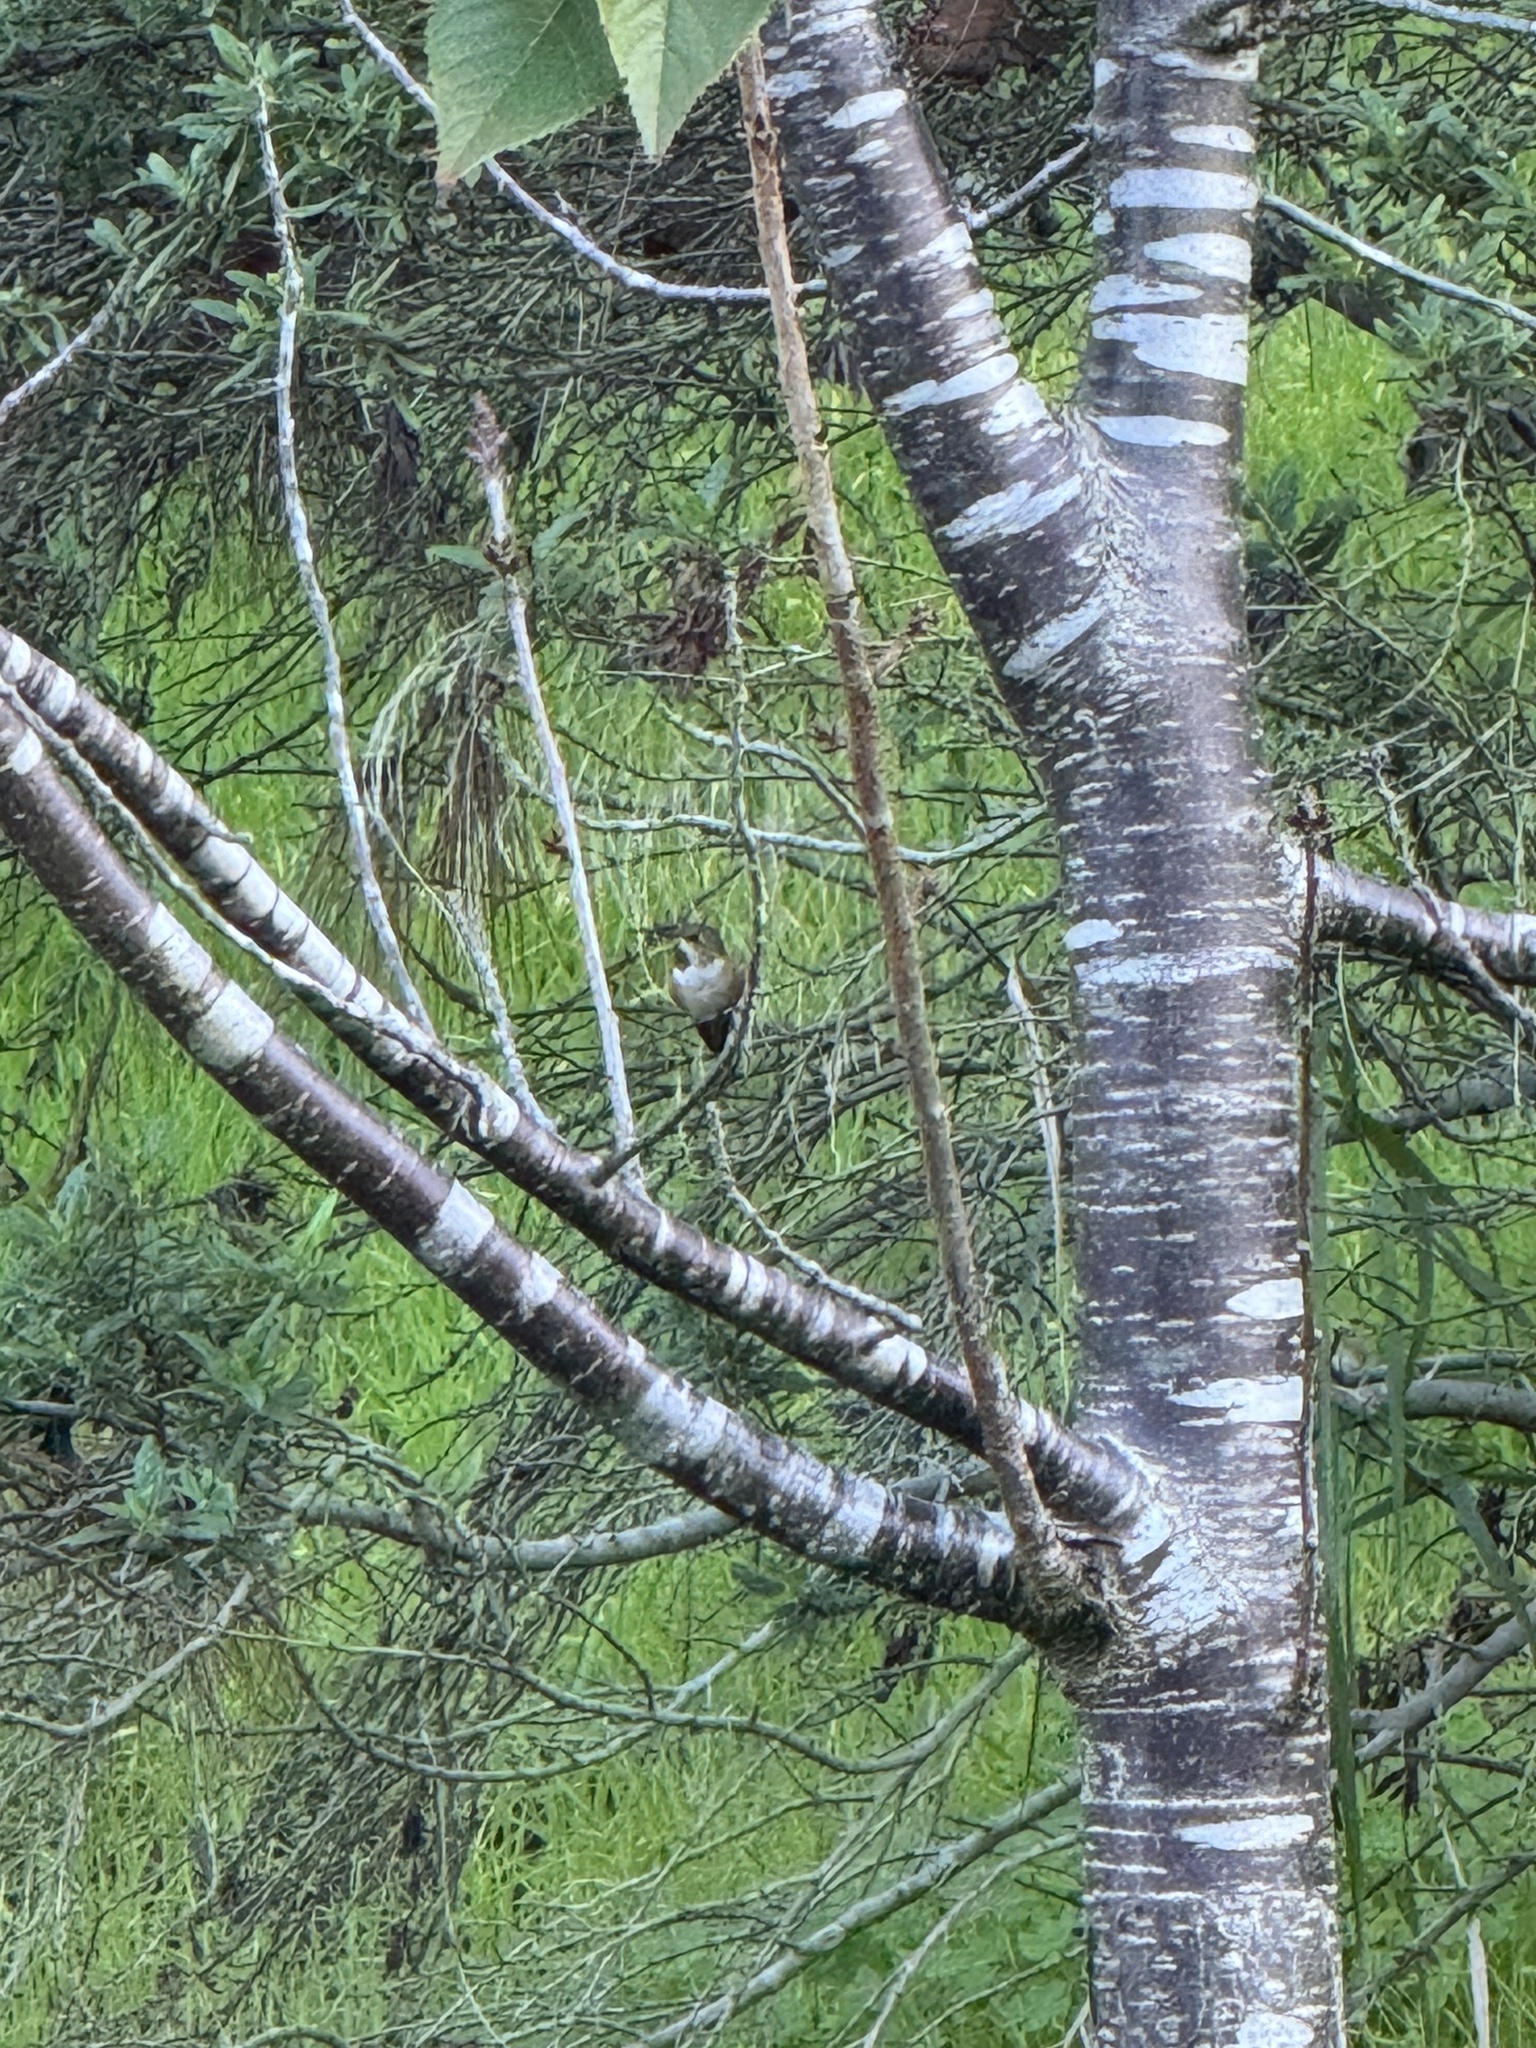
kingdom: Animalia
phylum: Chordata
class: Aves
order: Apodiformes
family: Trochilidae
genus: Selasphorus
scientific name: Selasphorus sasin
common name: Allen's hummingbird
